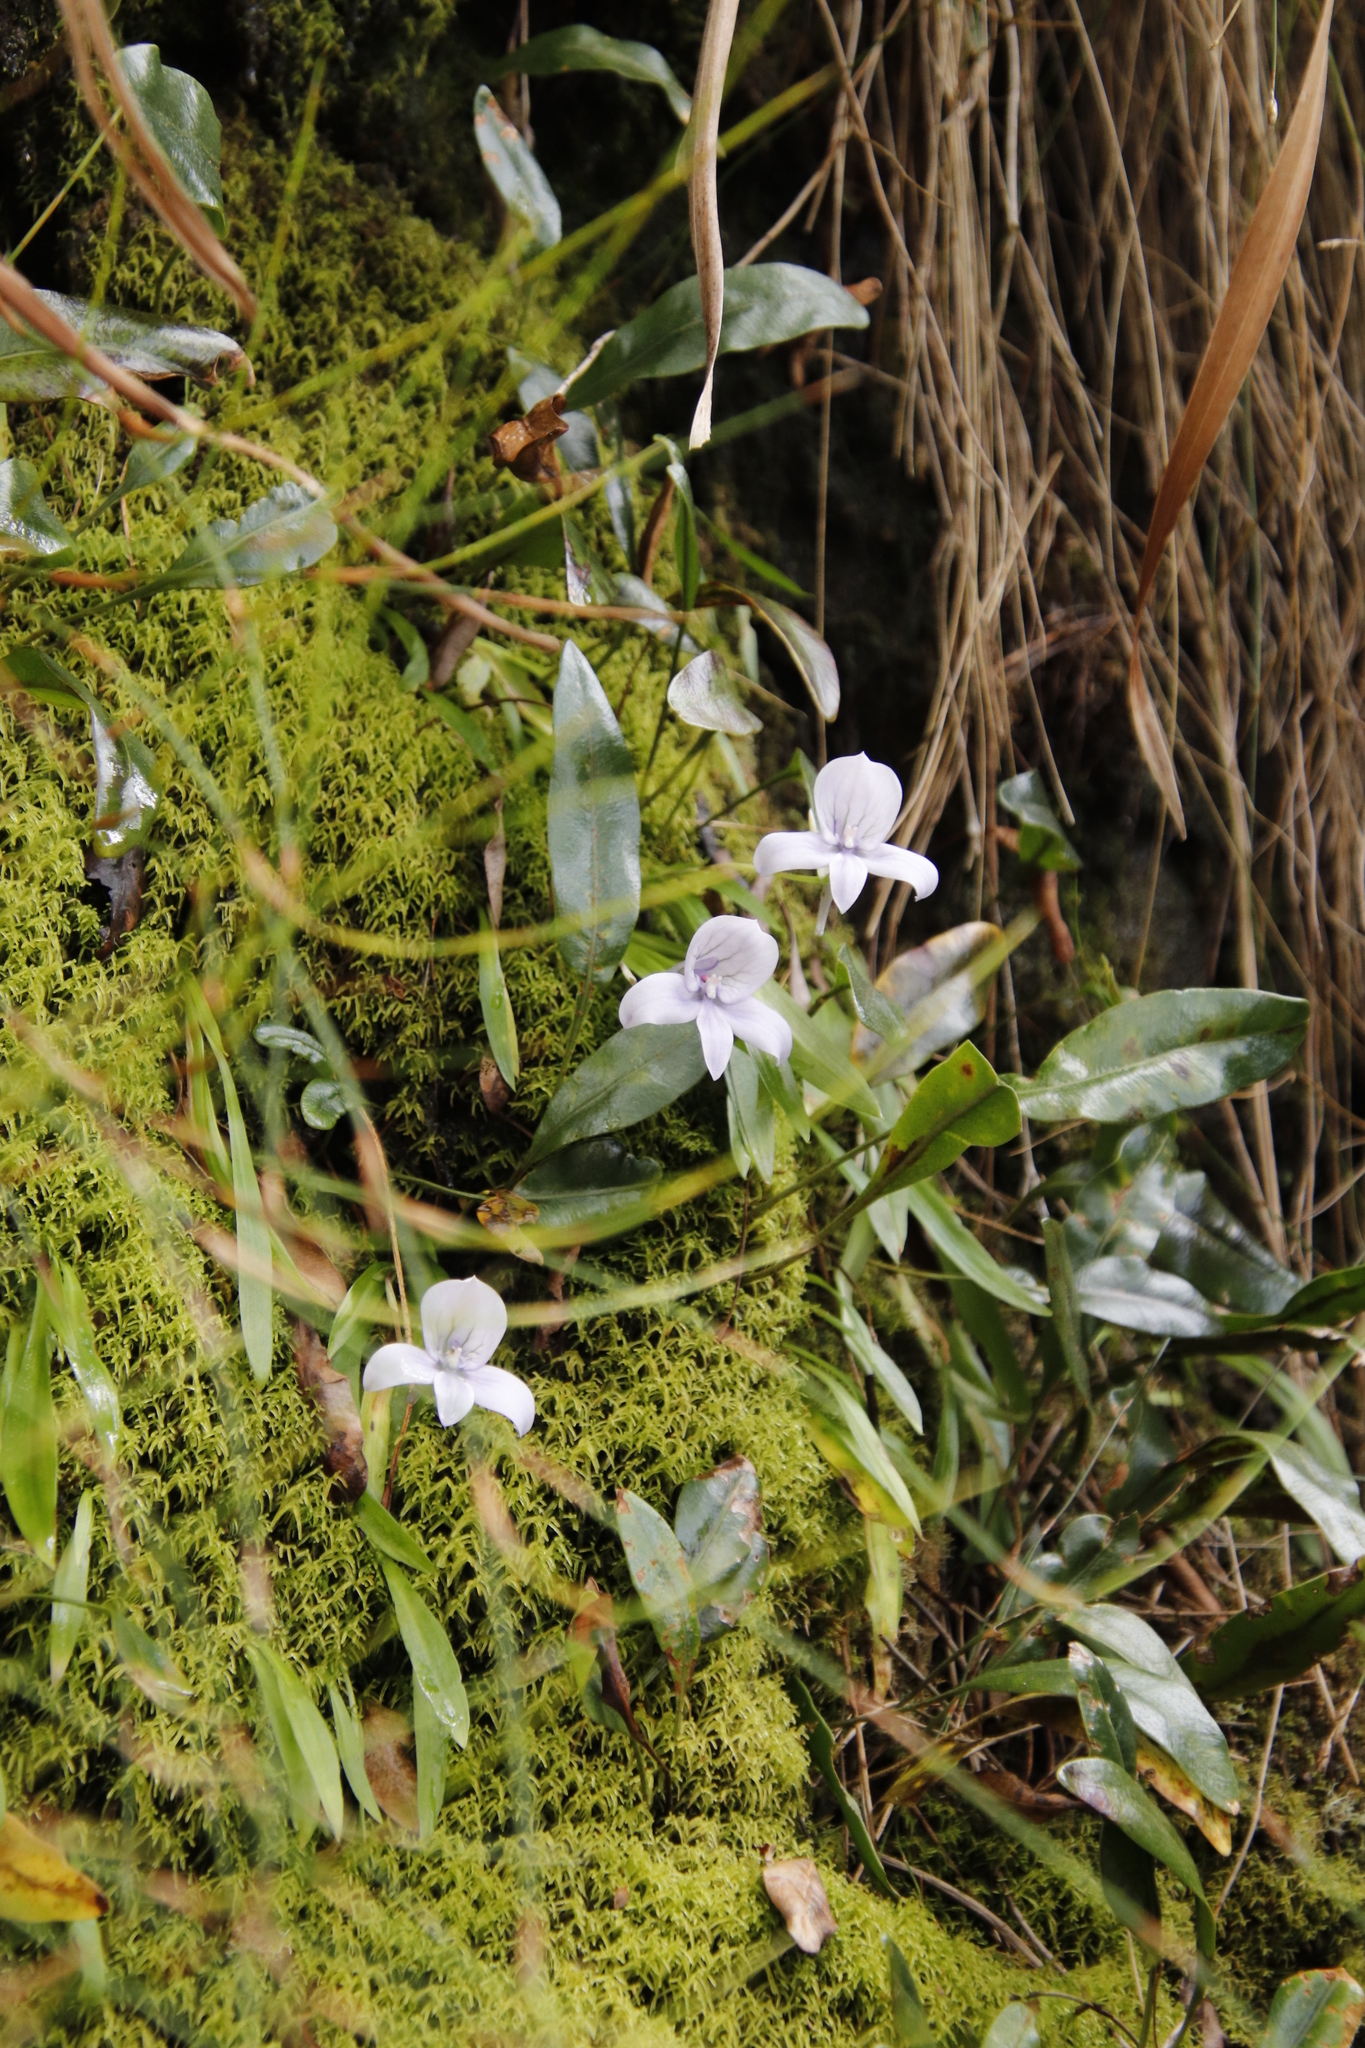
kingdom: Plantae
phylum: Tracheophyta
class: Liliopsida
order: Asparagales
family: Orchidaceae
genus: Disa
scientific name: Disa longicornu
